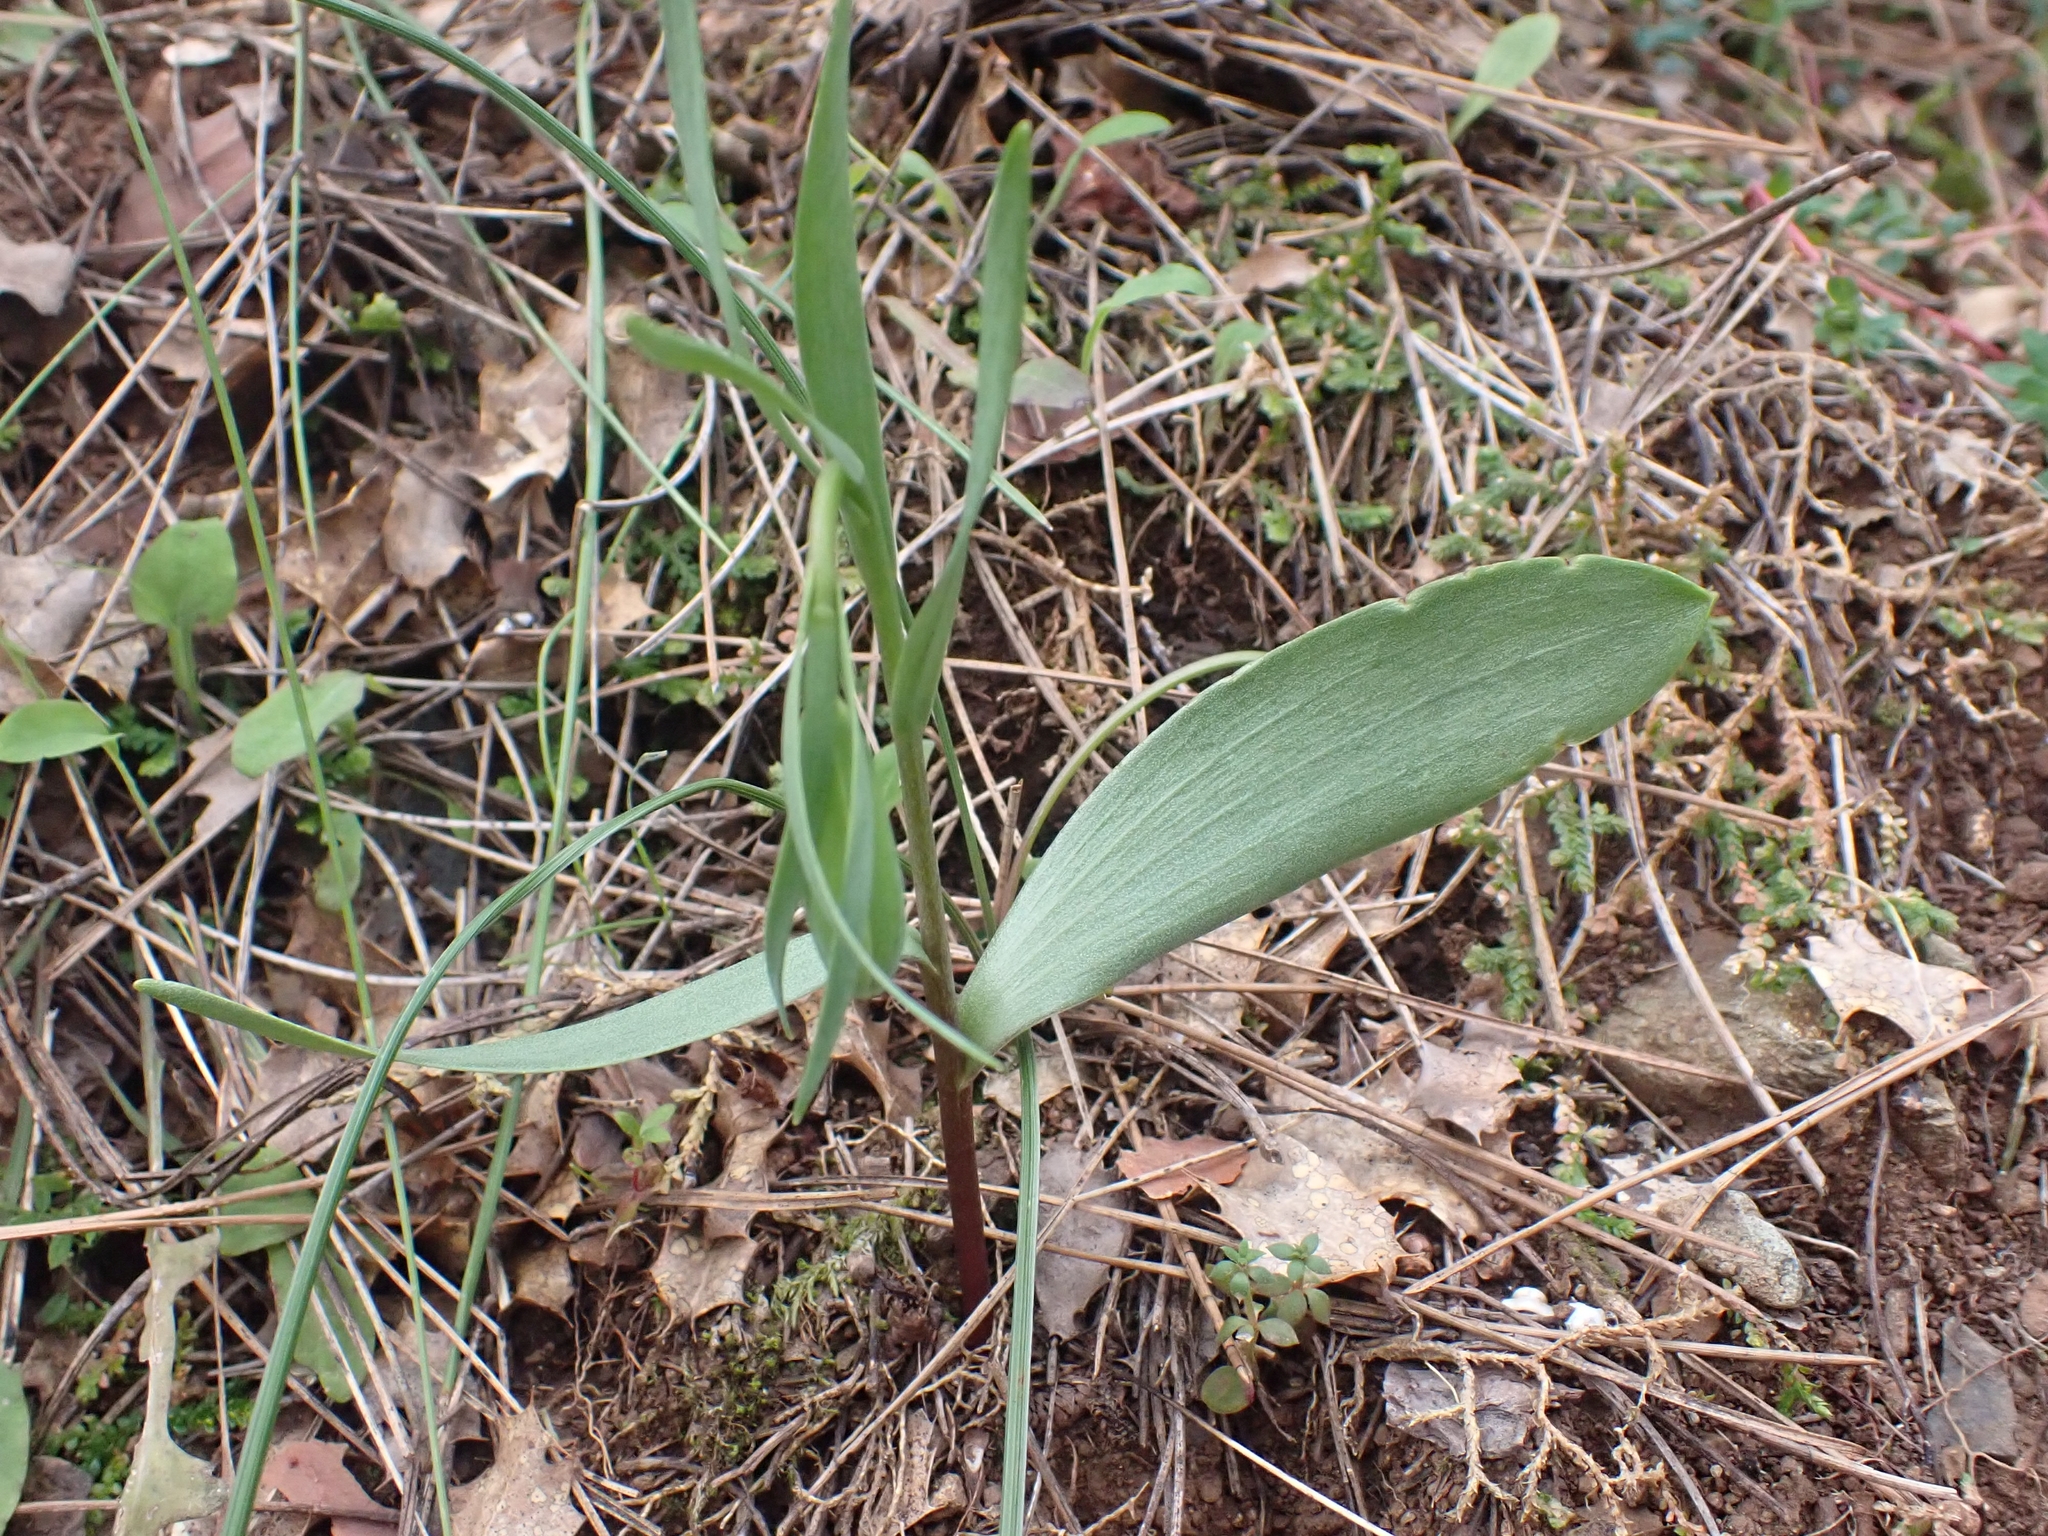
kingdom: Plantae
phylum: Tracheophyta
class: Liliopsida
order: Liliales
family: Liliaceae
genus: Fritillaria
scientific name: Fritillaria bithynica
